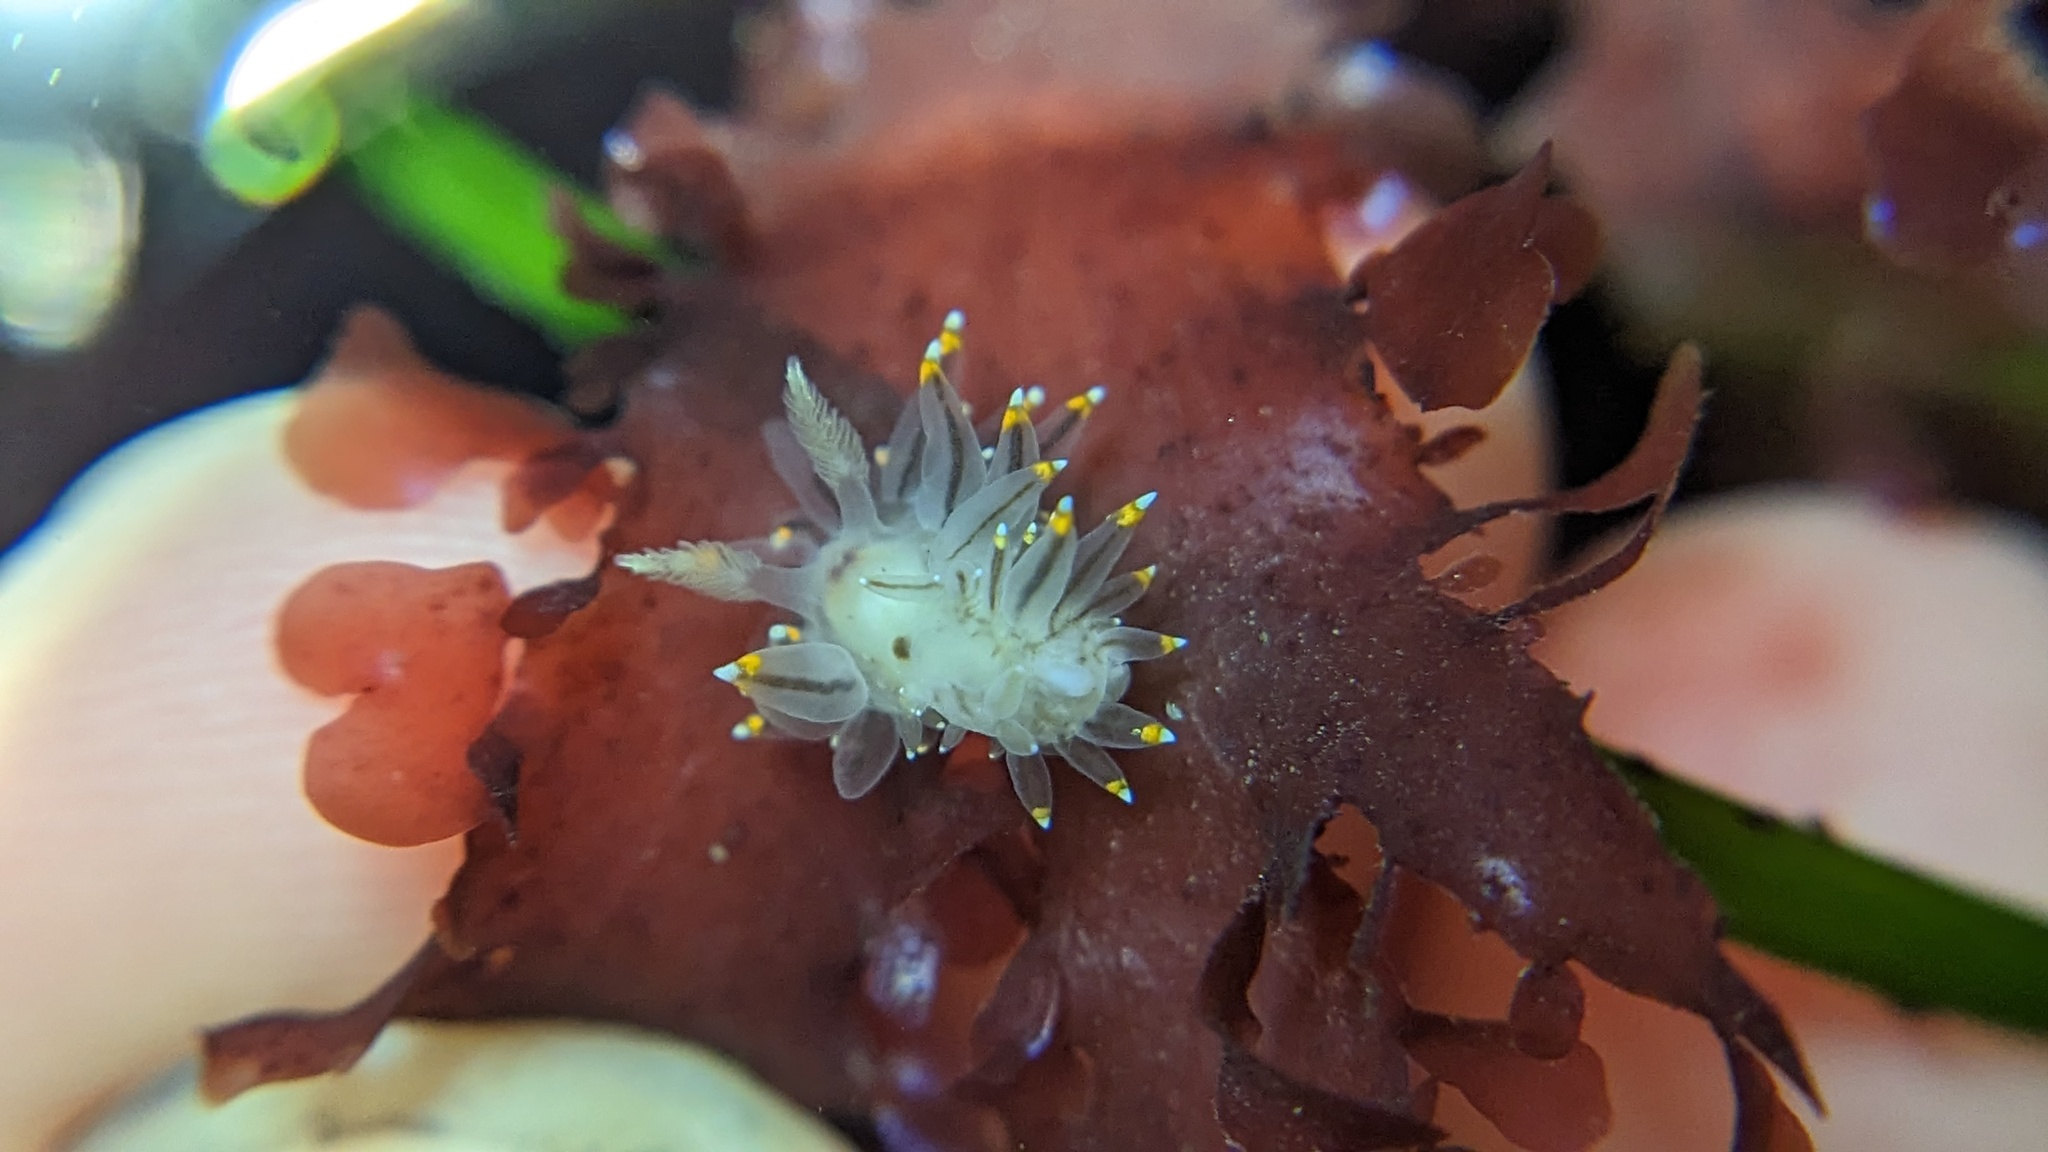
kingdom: Animalia
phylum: Mollusca
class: Gastropoda
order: Nudibranchia
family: Janolidae
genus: Antiopella
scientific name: Antiopella fusca
